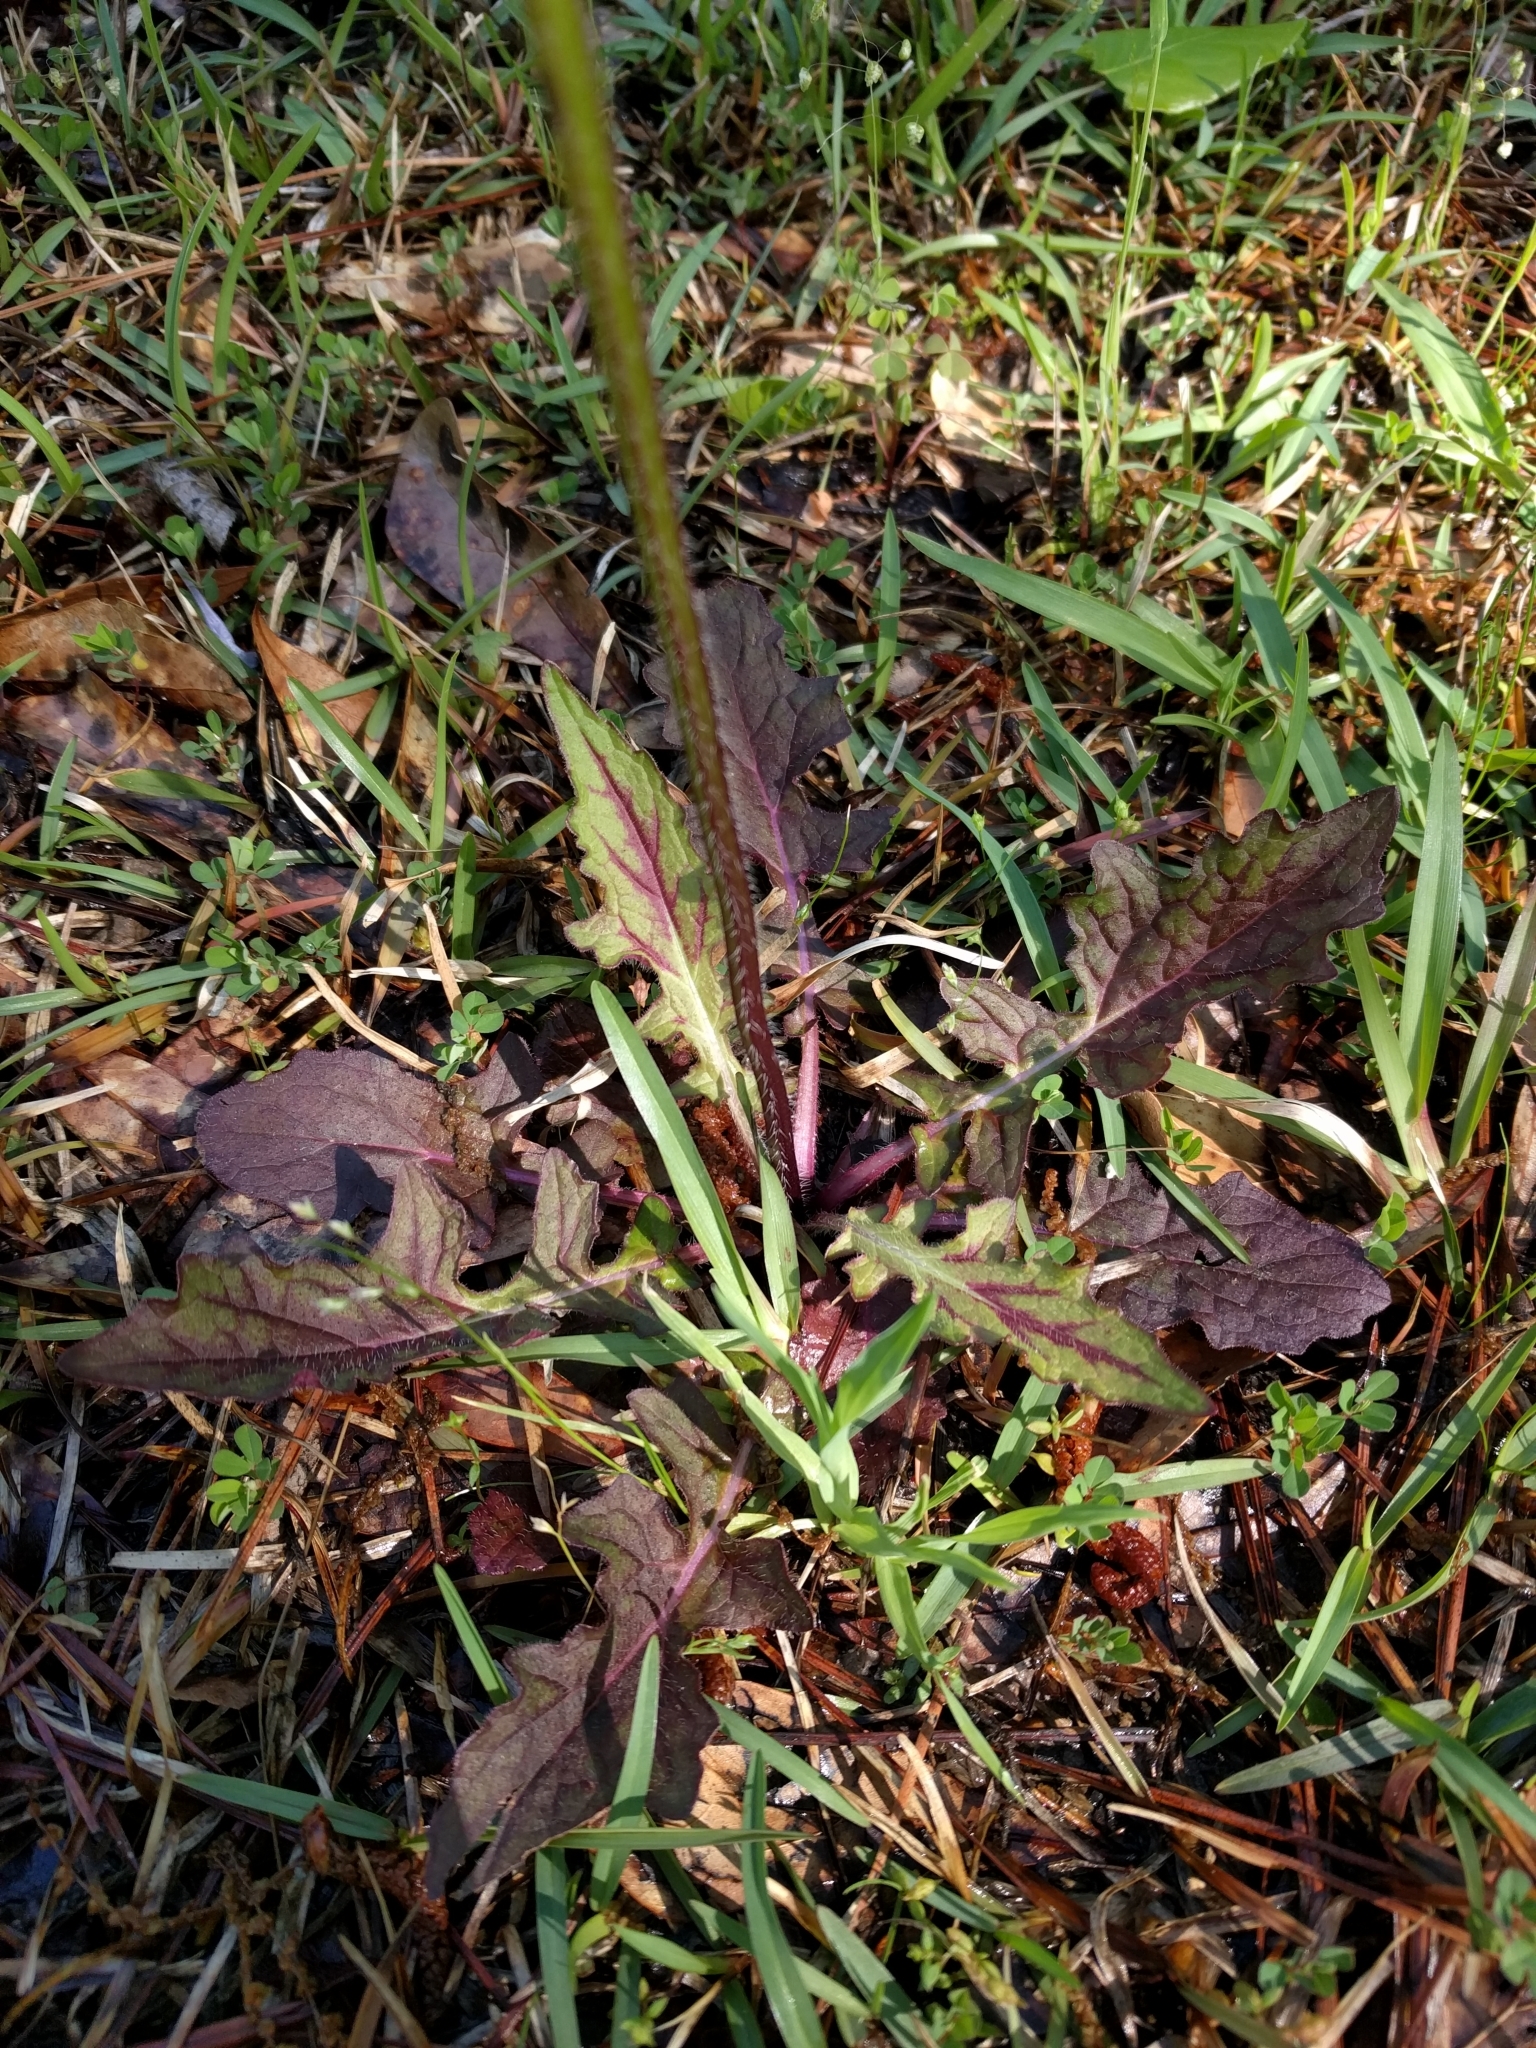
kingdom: Plantae
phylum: Tracheophyta
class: Magnoliopsida
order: Lamiales
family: Lamiaceae
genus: Salvia
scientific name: Salvia lyrata
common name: Cancerweed
